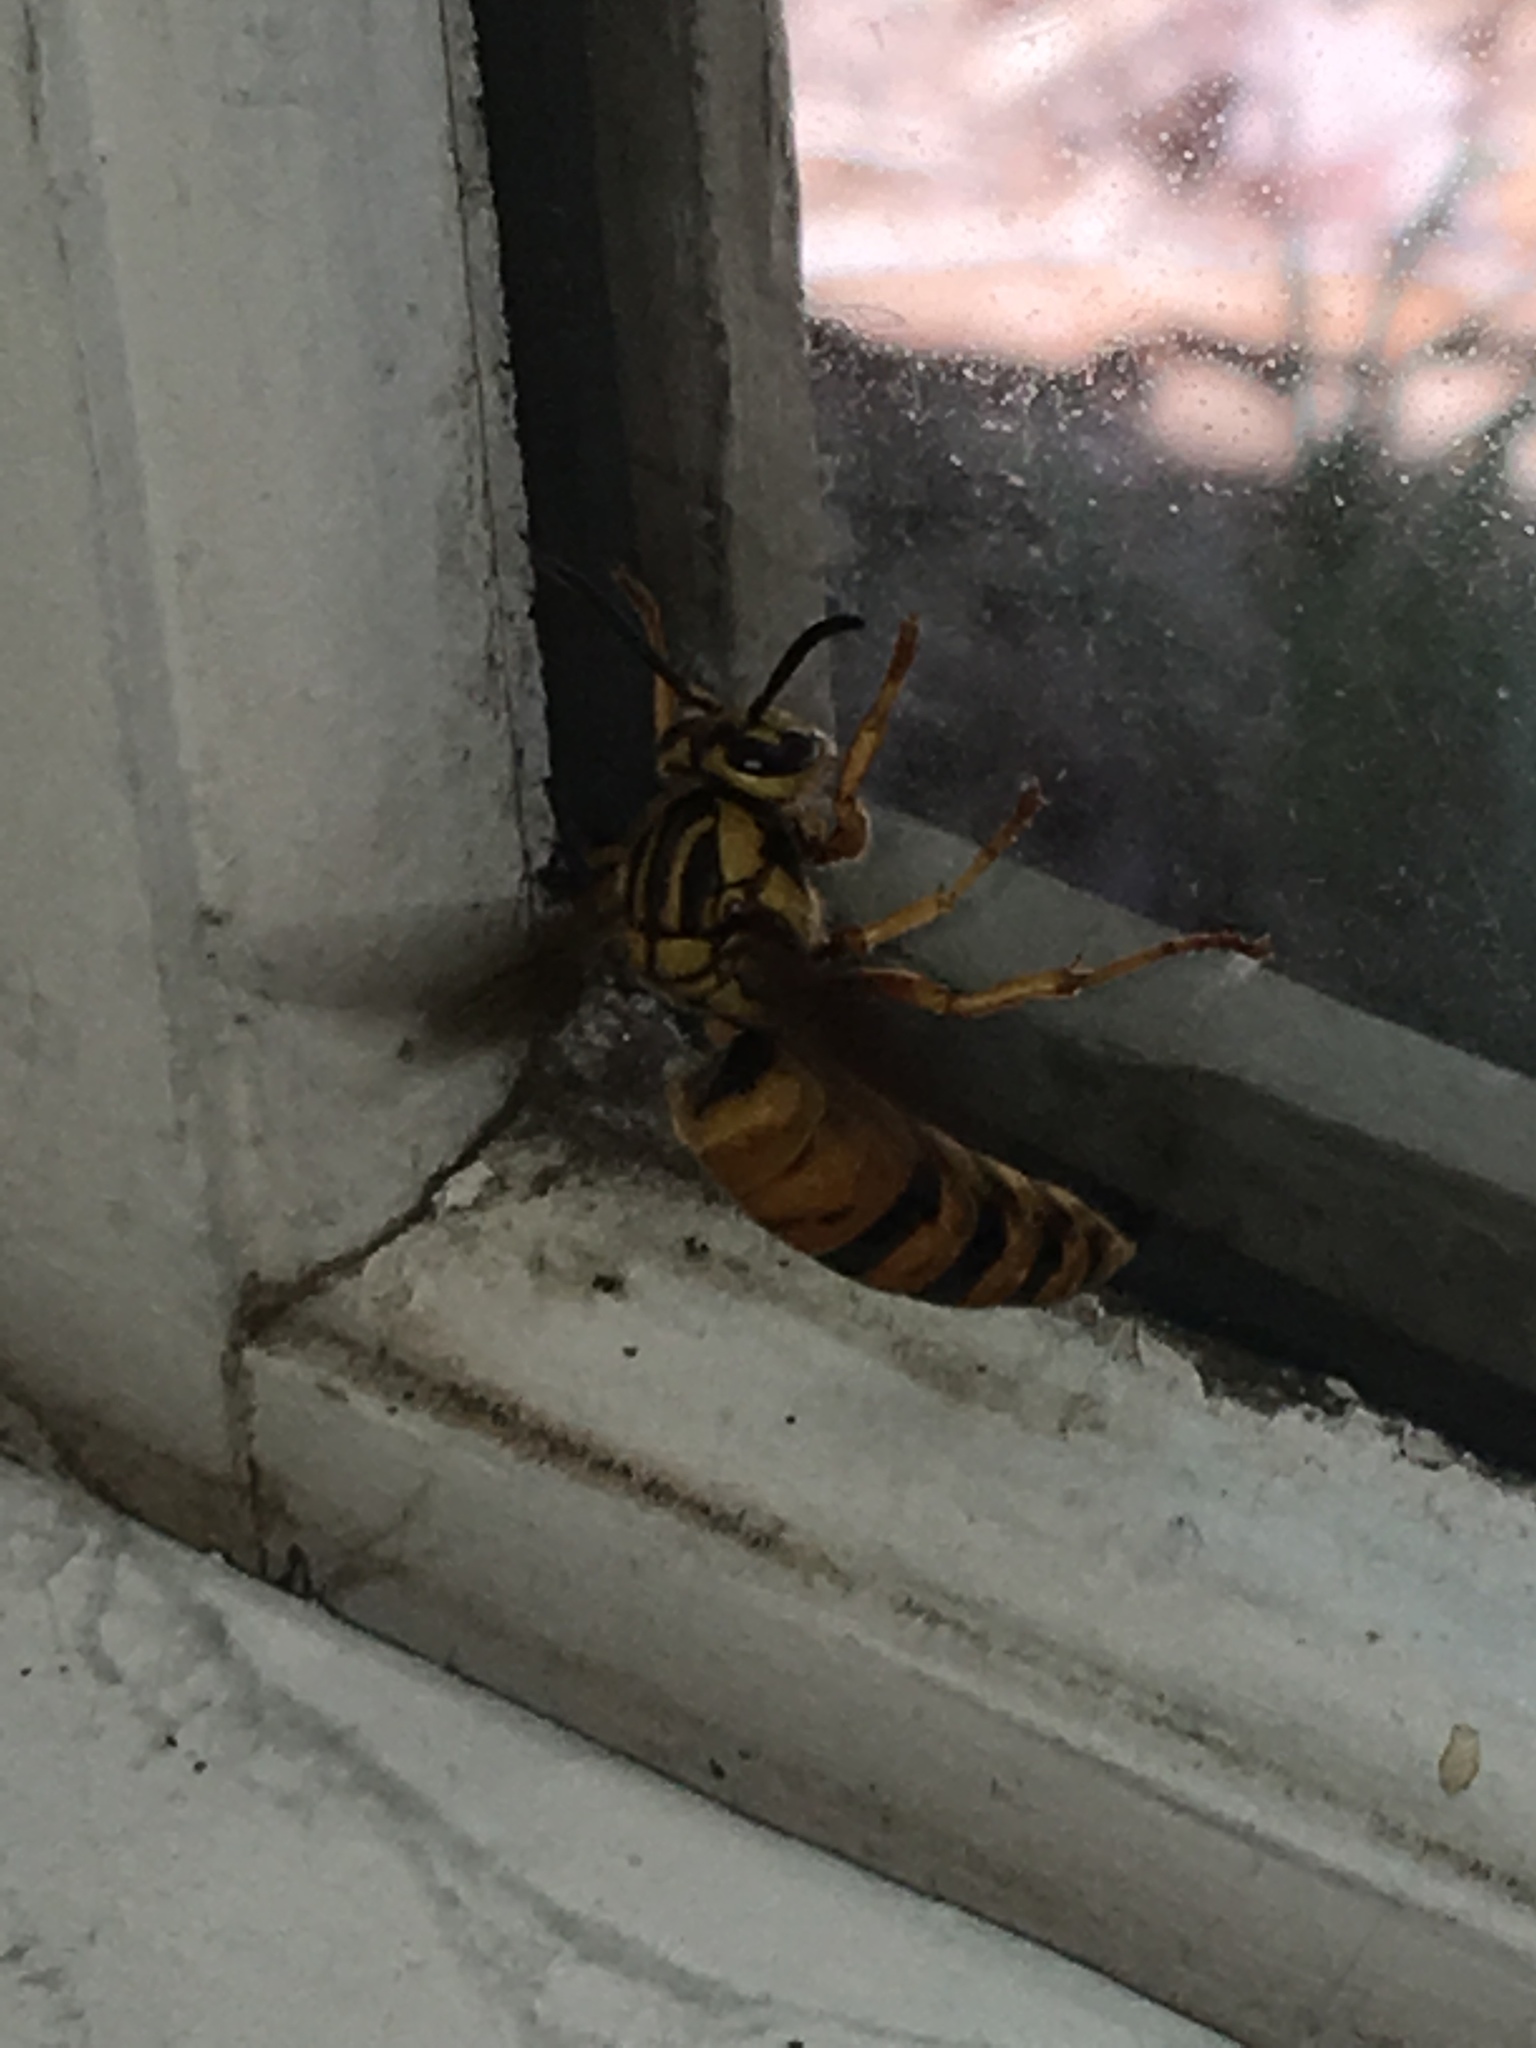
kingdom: Animalia
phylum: Arthropoda
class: Insecta
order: Hymenoptera
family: Vespidae
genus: Vespula
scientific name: Vespula squamosa
